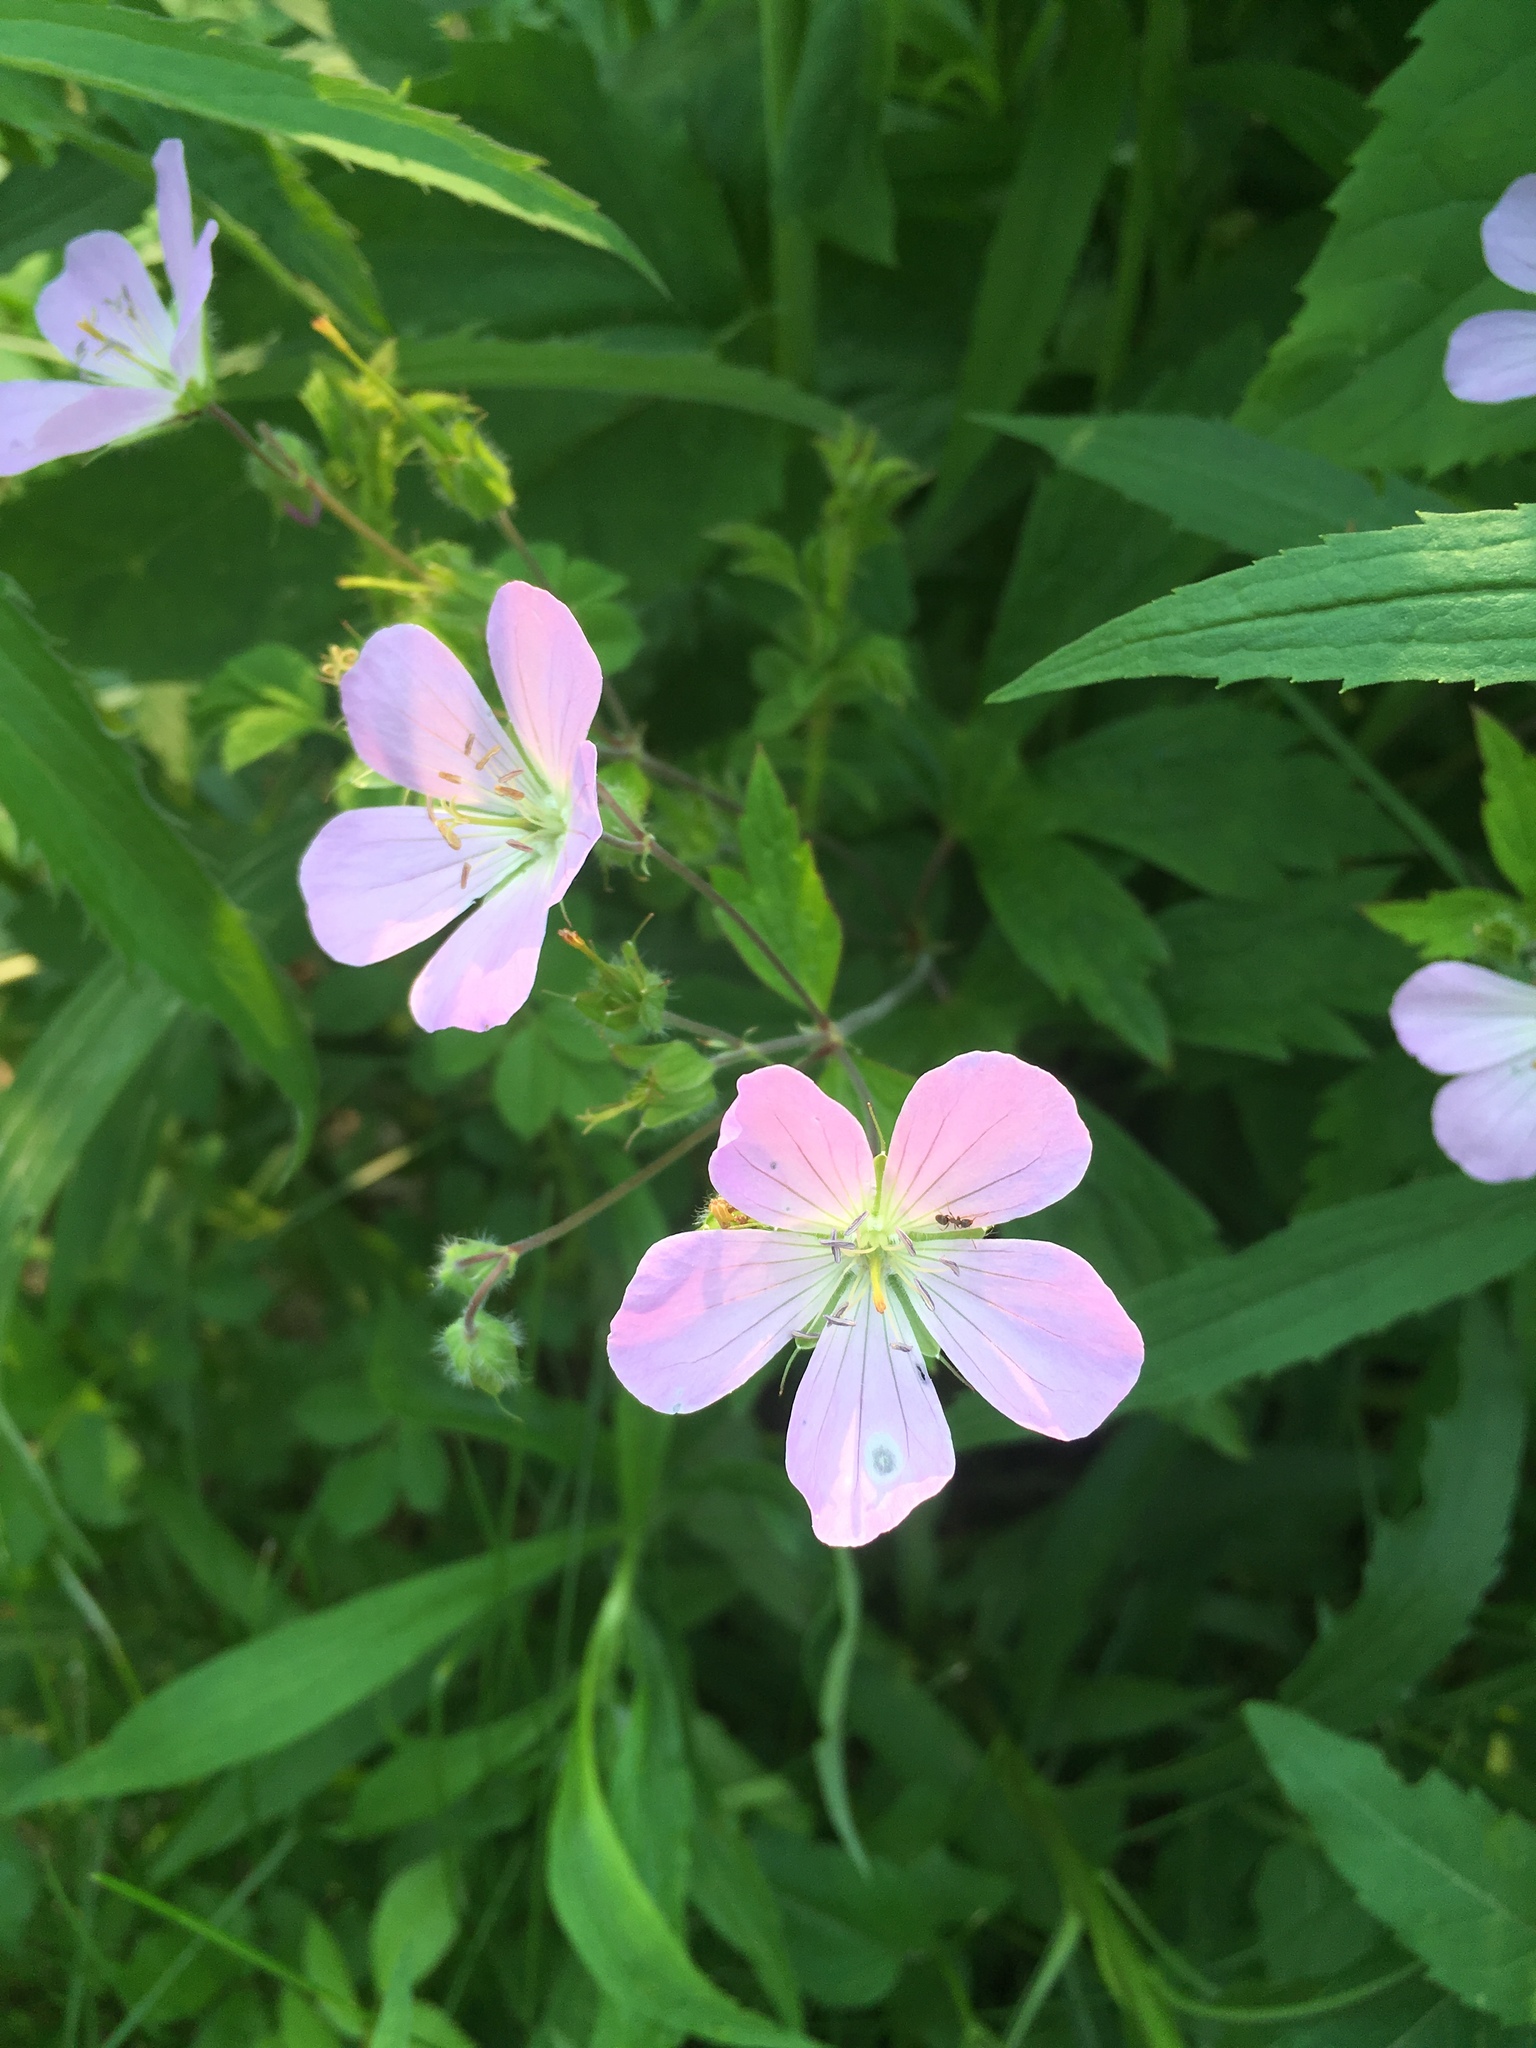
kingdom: Plantae
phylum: Tracheophyta
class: Magnoliopsida
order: Geraniales
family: Geraniaceae
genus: Geranium
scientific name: Geranium maculatum
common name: Spotted geranium
